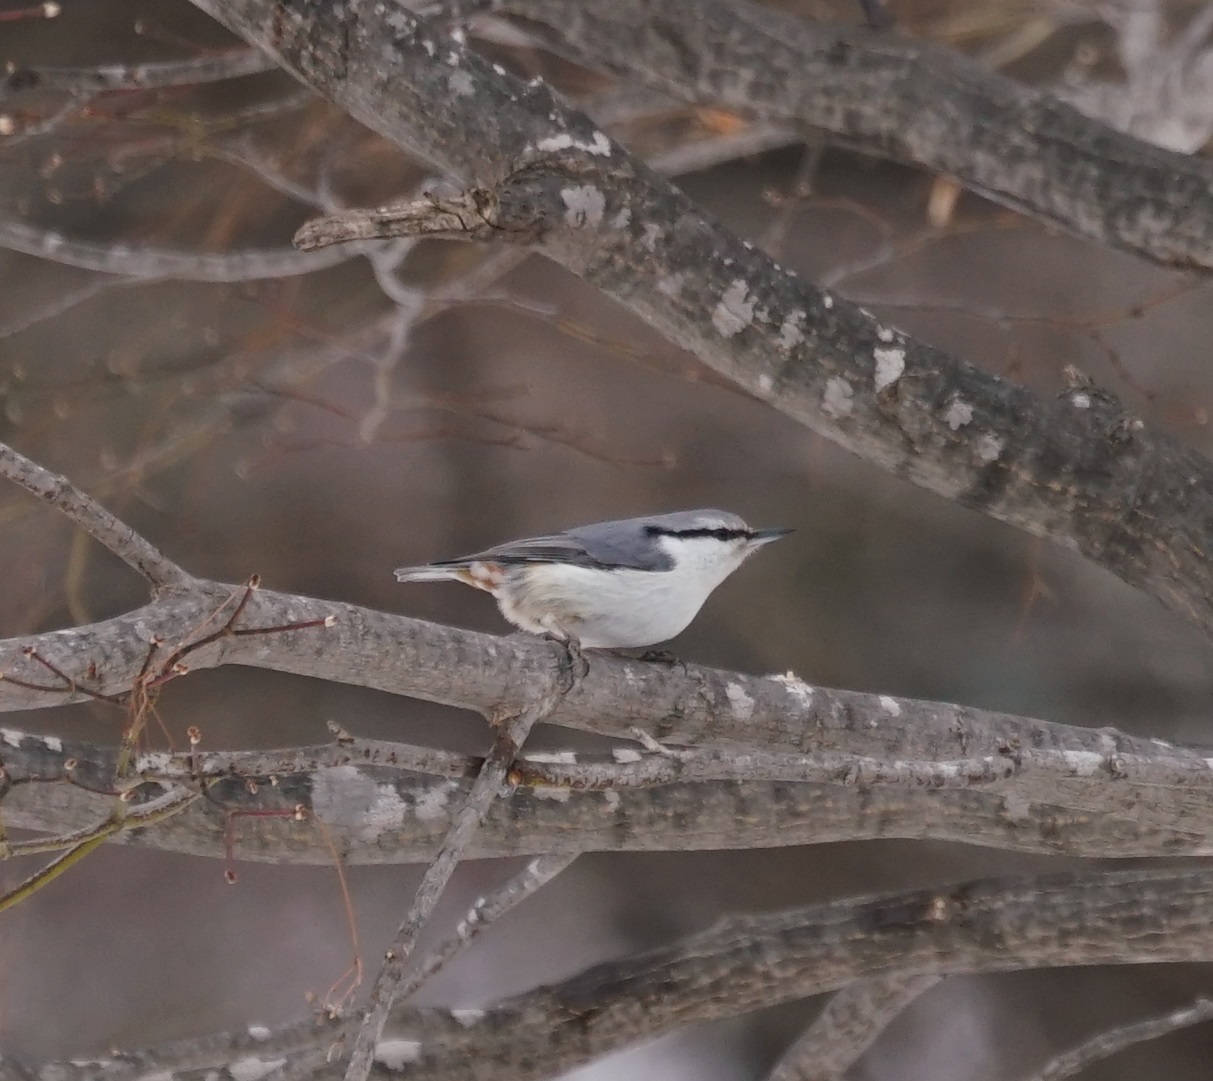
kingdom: Animalia
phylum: Chordata
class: Aves
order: Passeriformes
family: Sittidae
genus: Sitta
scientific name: Sitta europaea
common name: Eurasian nuthatch
